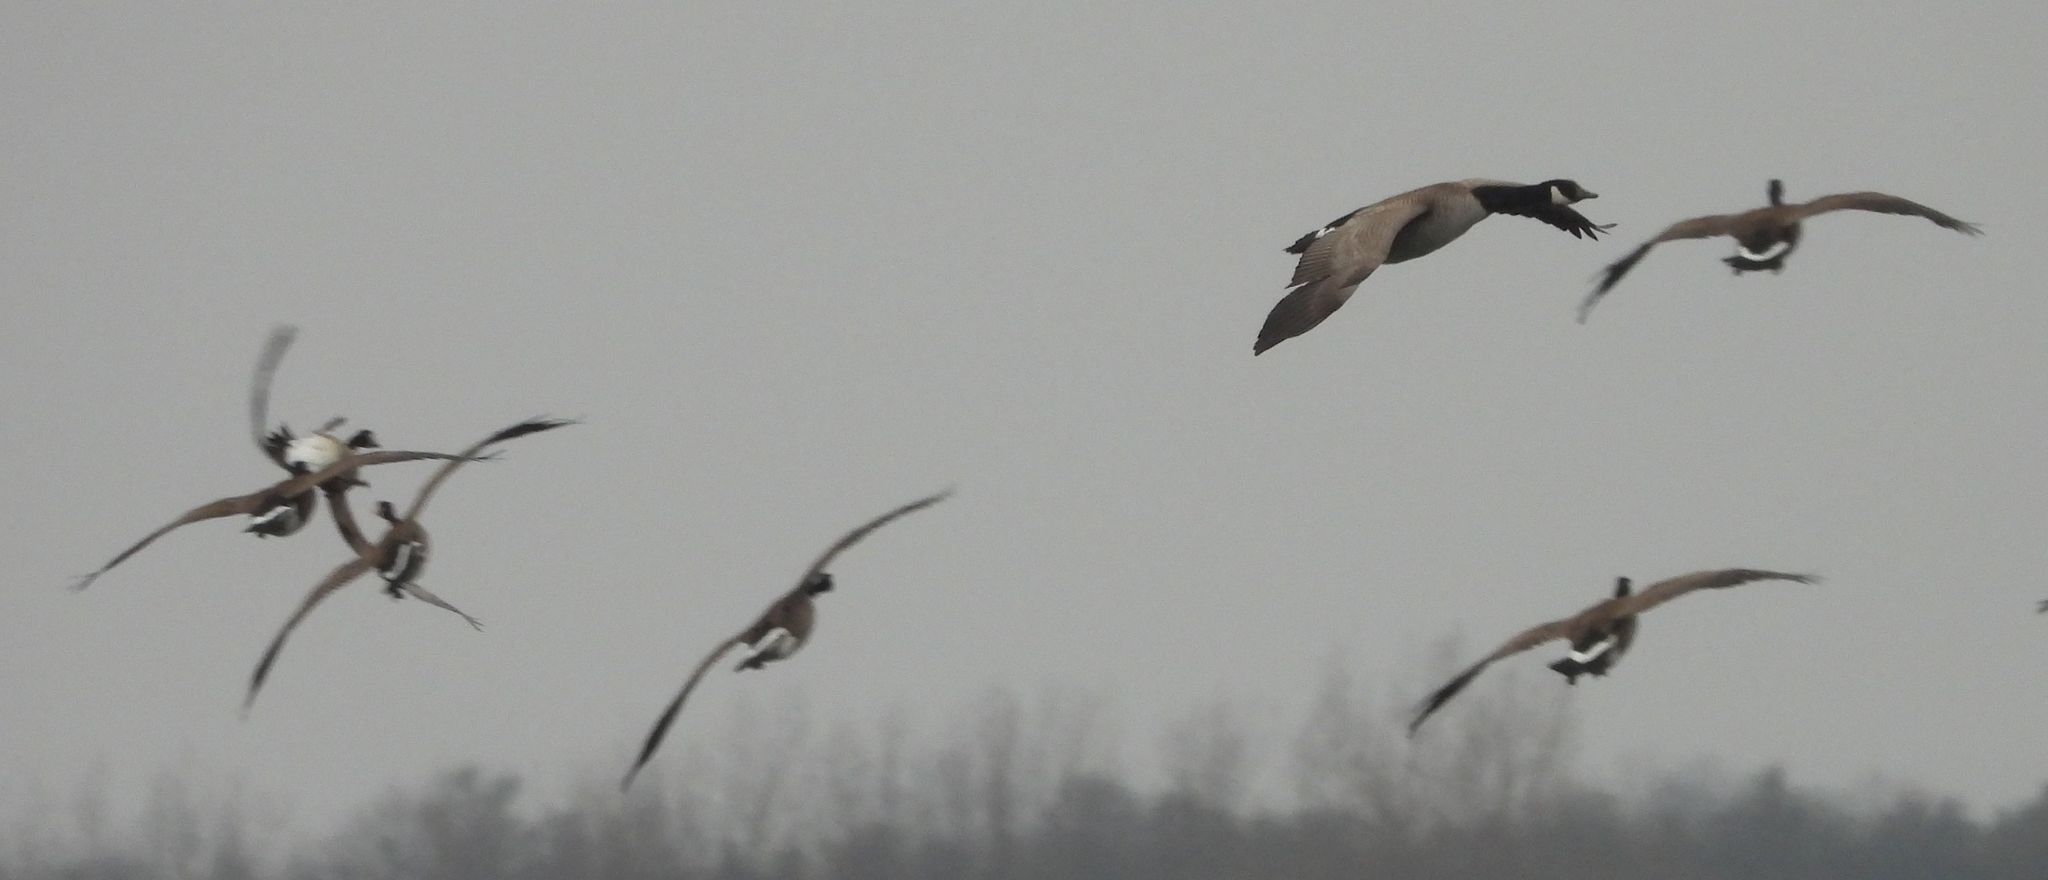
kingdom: Animalia
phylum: Chordata
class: Aves
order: Anseriformes
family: Anatidae
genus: Branta
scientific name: Branta canadensis
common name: Canada goose
